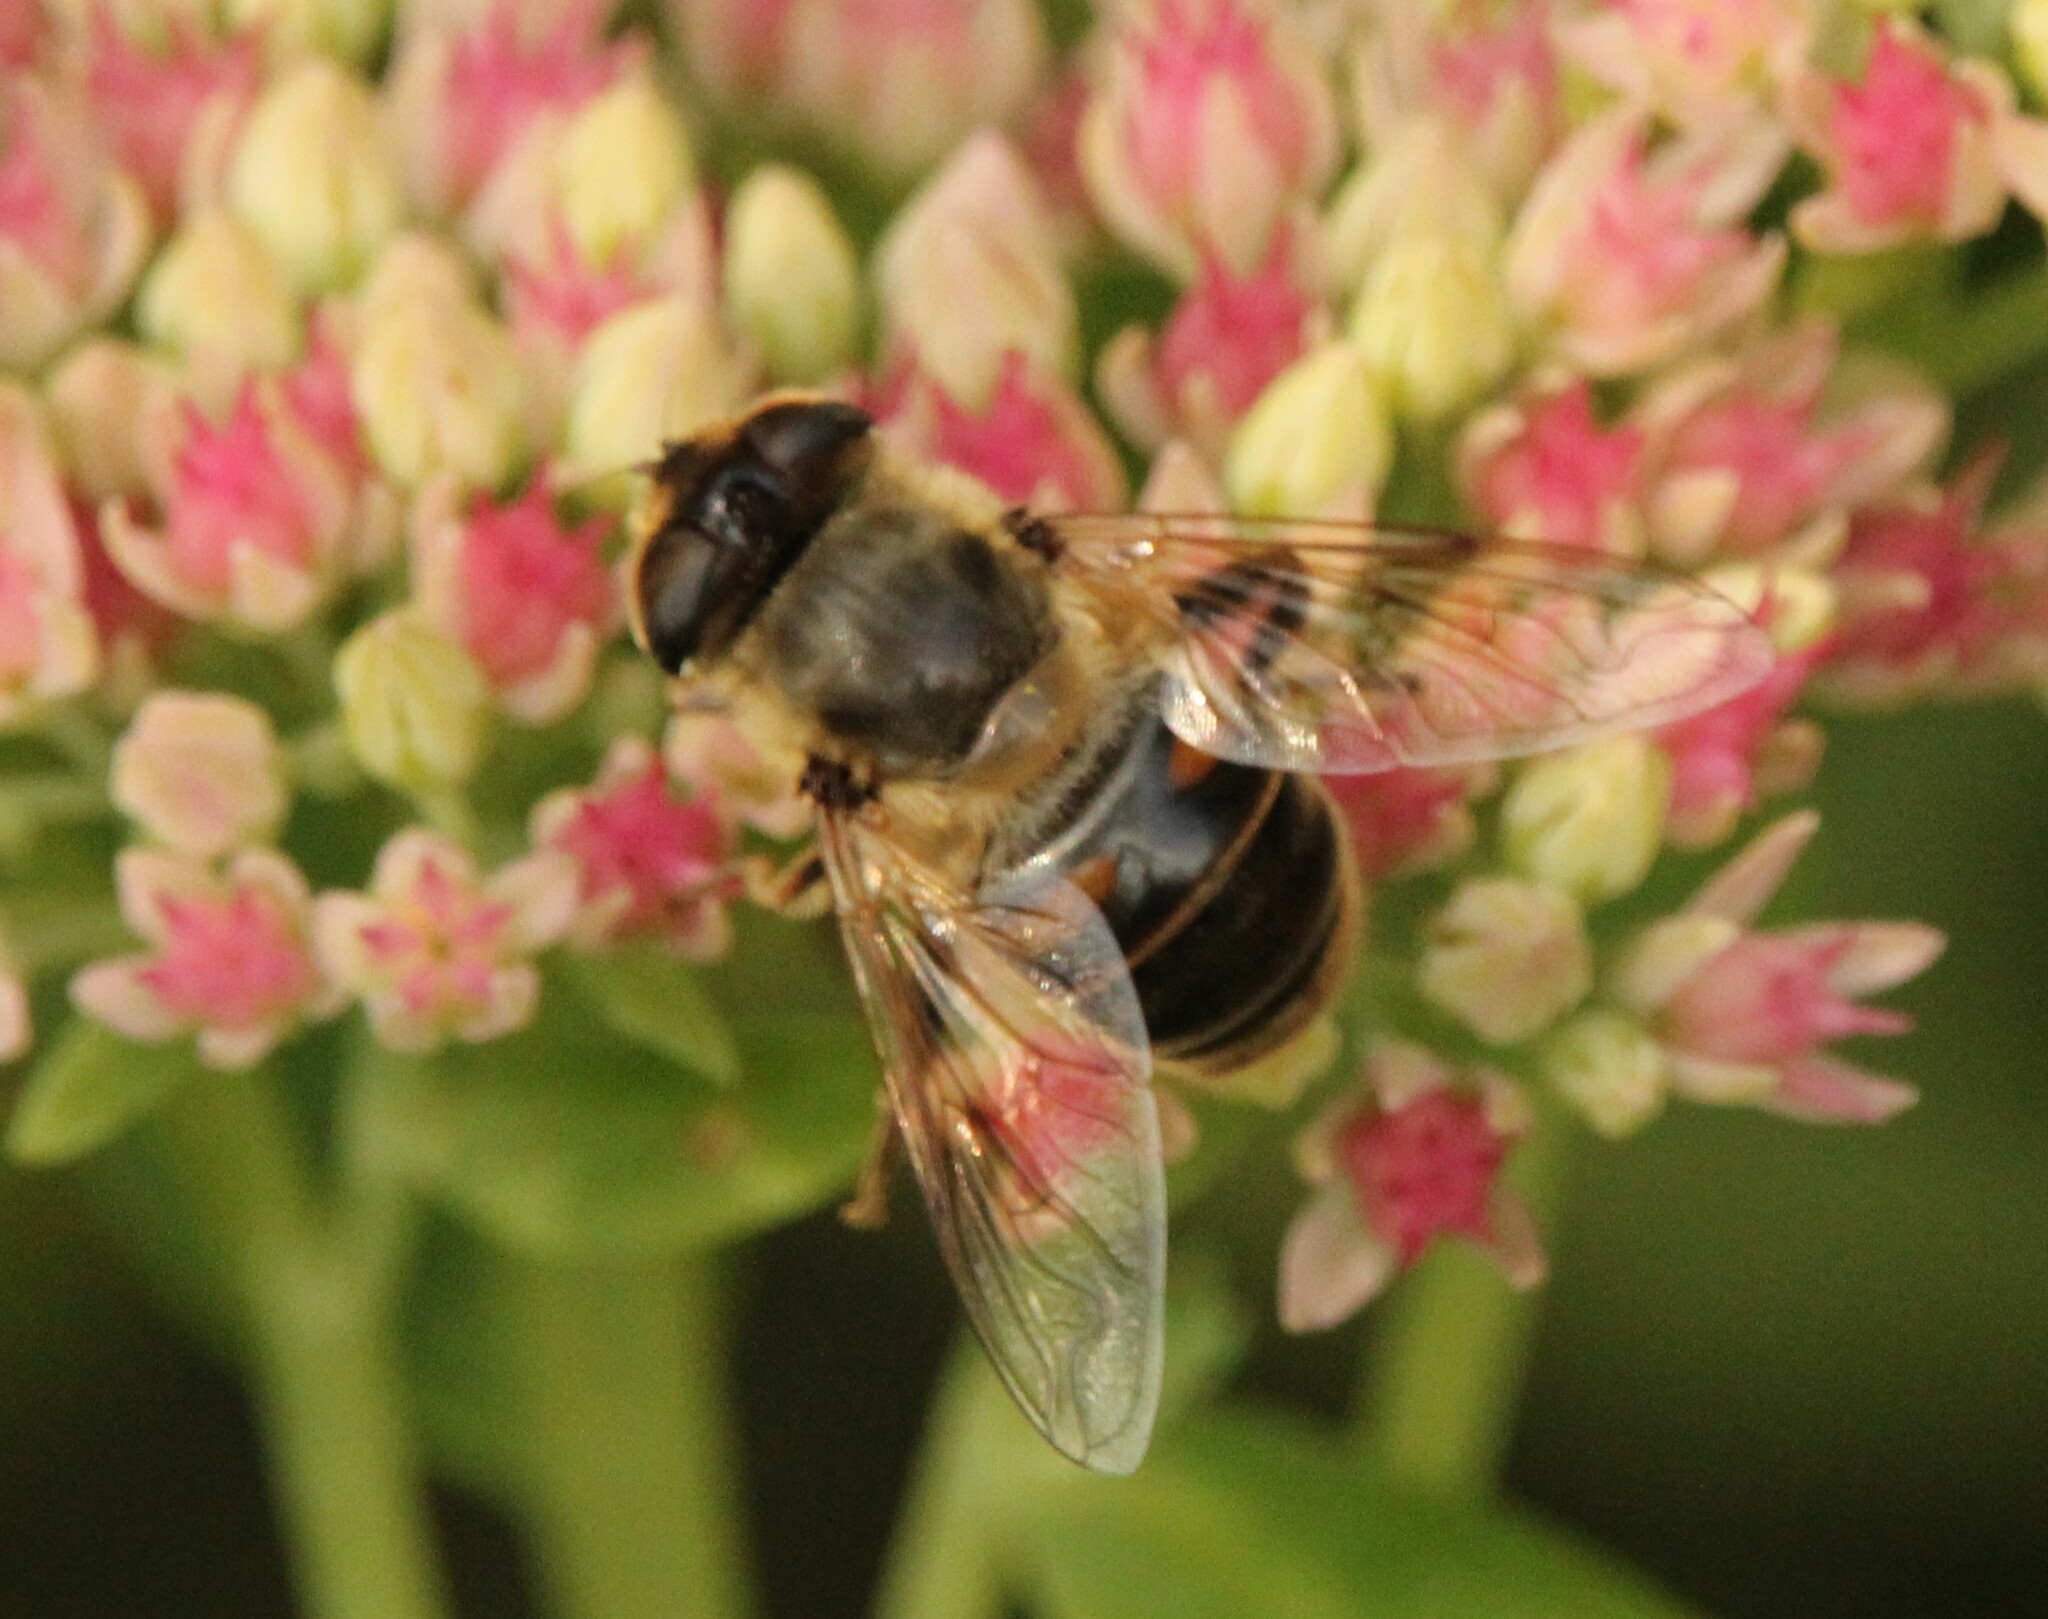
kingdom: Animalia
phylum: Arthropoda
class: Insecta
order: Diptera
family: Syrphidae
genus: Eristalis
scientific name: Eristalis tenax
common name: Drone fly
